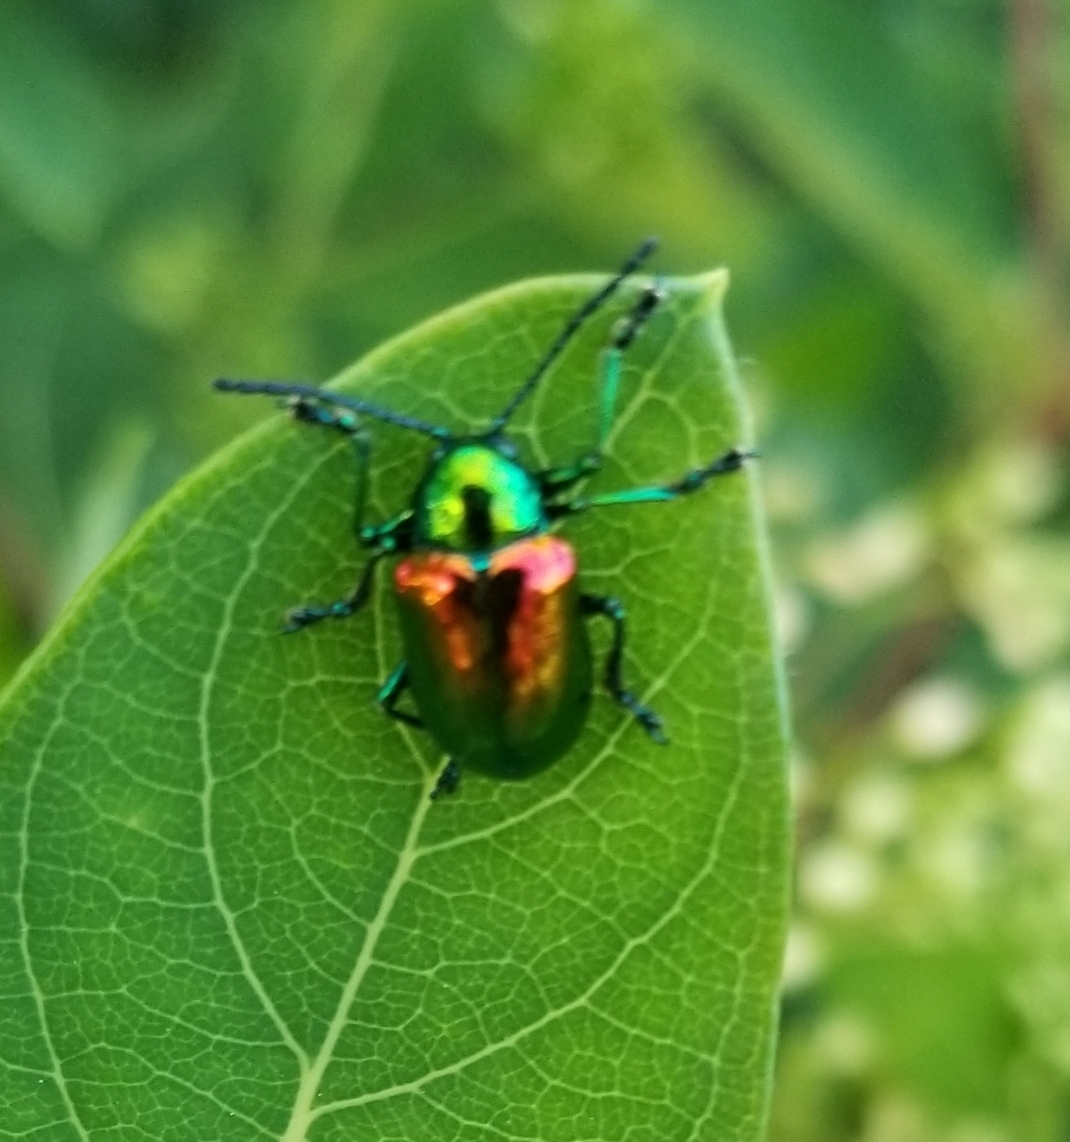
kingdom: Animalia
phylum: Arthropoda
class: Insecta
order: Coleoptera
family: Chrysomelidae
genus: Chrysochus
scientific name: Chrysochus auratus
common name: Dogbane leaf beetle
